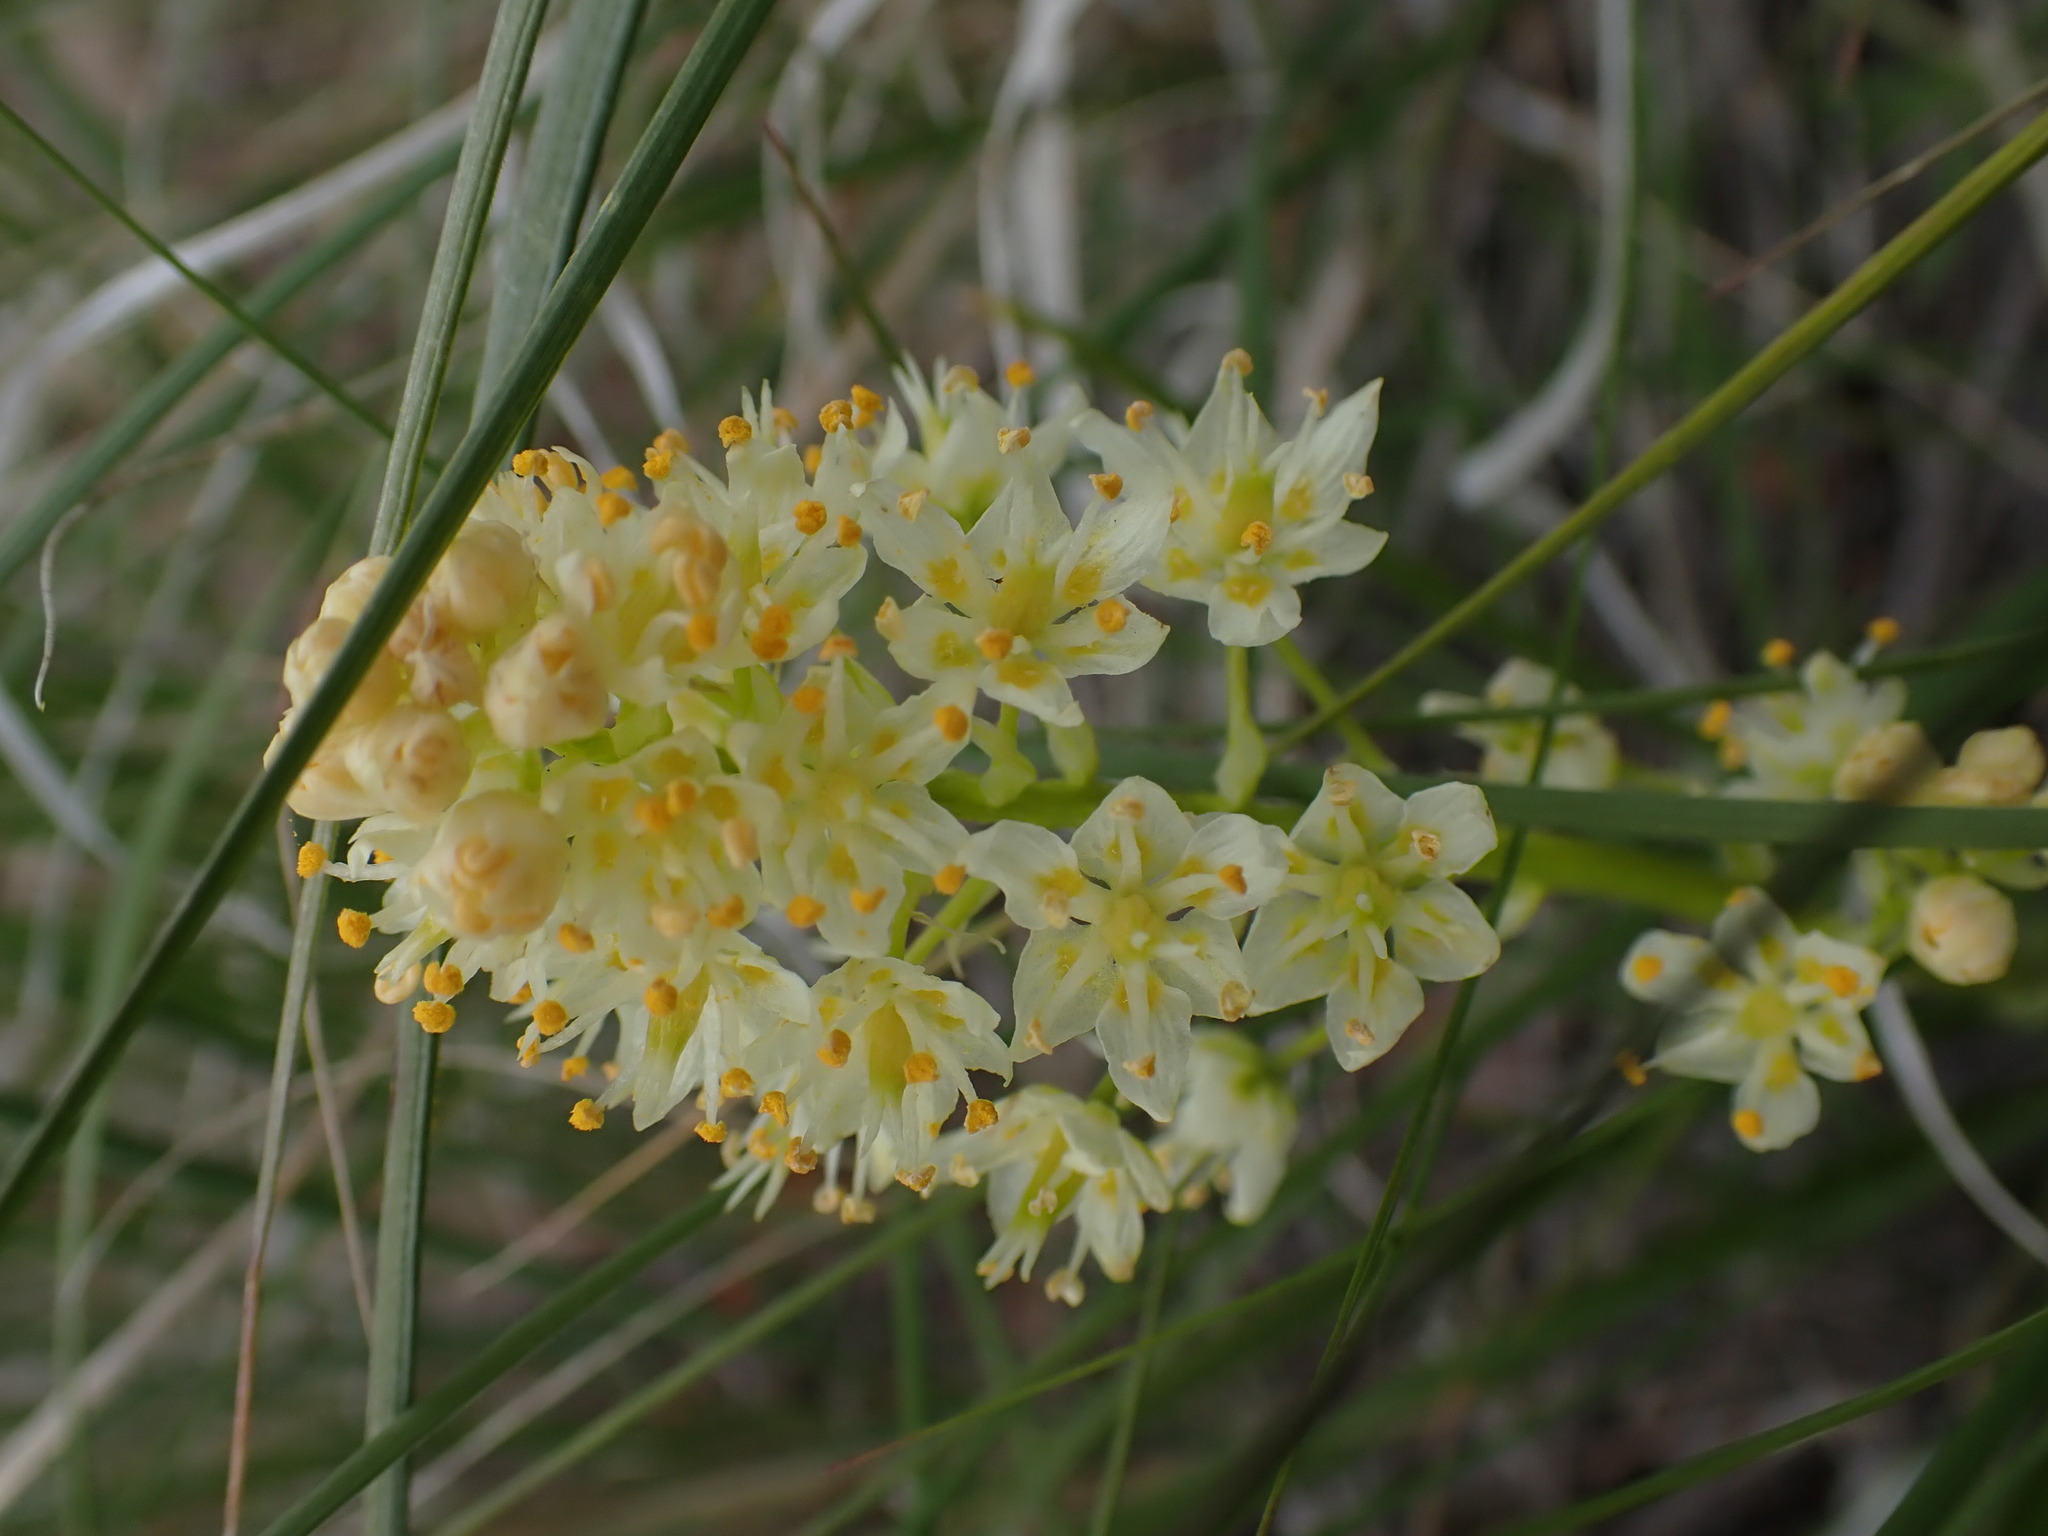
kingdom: Plantae
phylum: Tracheophyta
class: Liliopsida
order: Liliales
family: Melanthiaceae
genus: Toxicoscordion
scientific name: Toxicoscordion venenosum
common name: Meadow death camas
